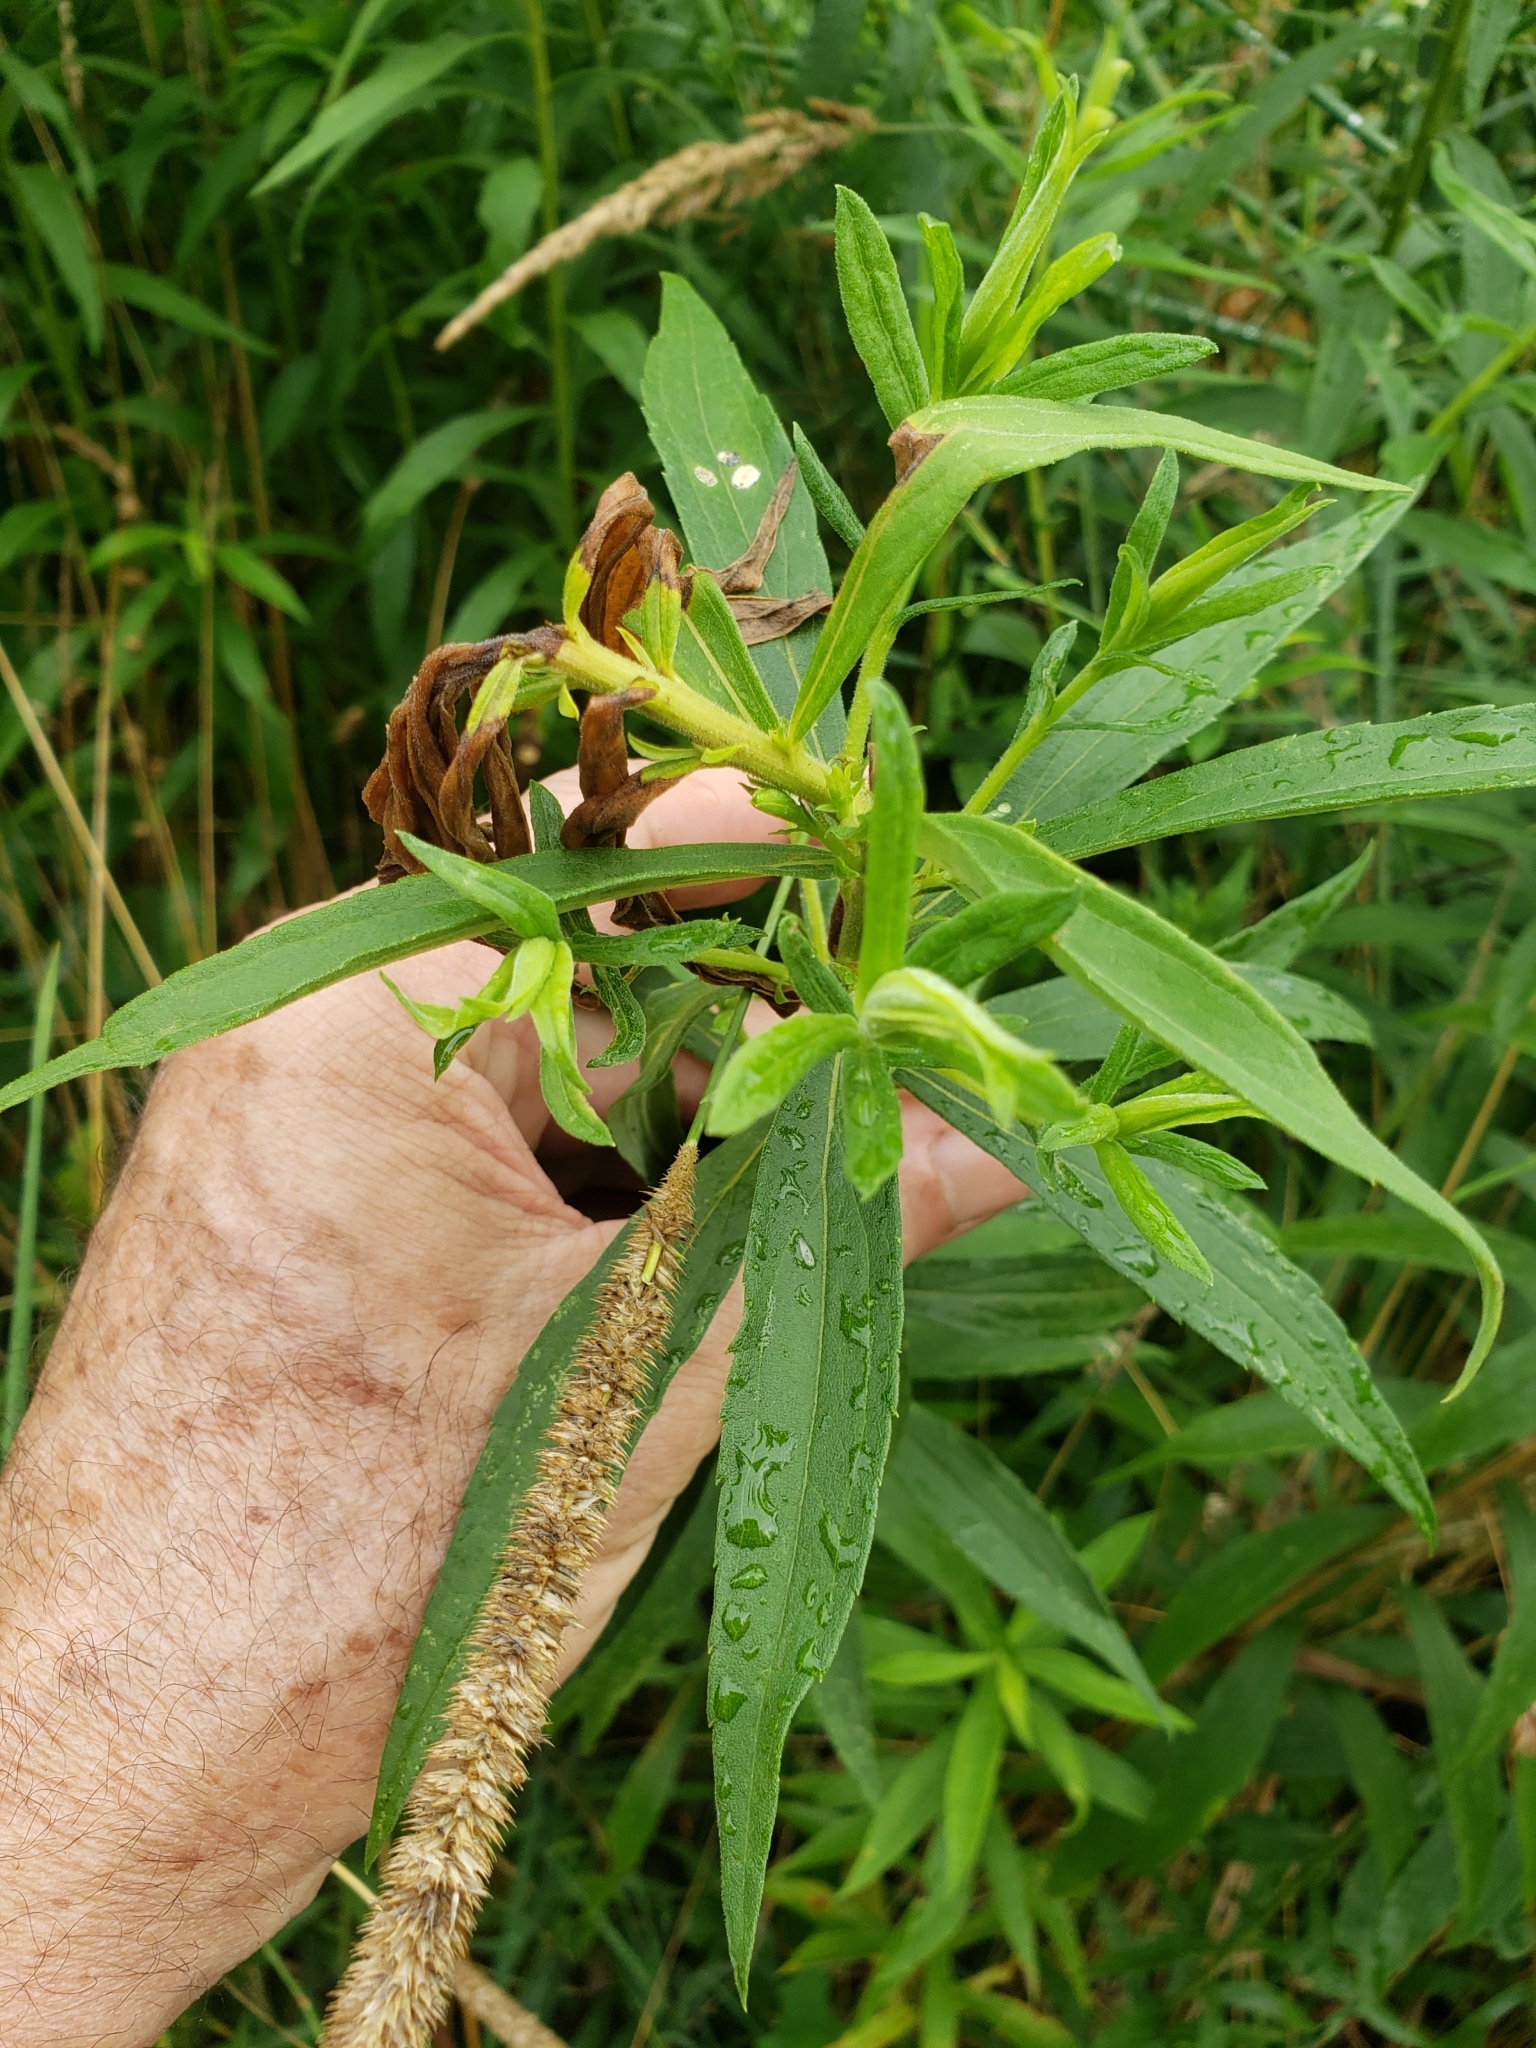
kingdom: Animalia
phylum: Arthropoda
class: Insecta
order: Diptera
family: Cecidomyiidae
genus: Rhopalomyia
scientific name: Rhopalomyia solidaginis
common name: Goldenrod bunch gall midge
